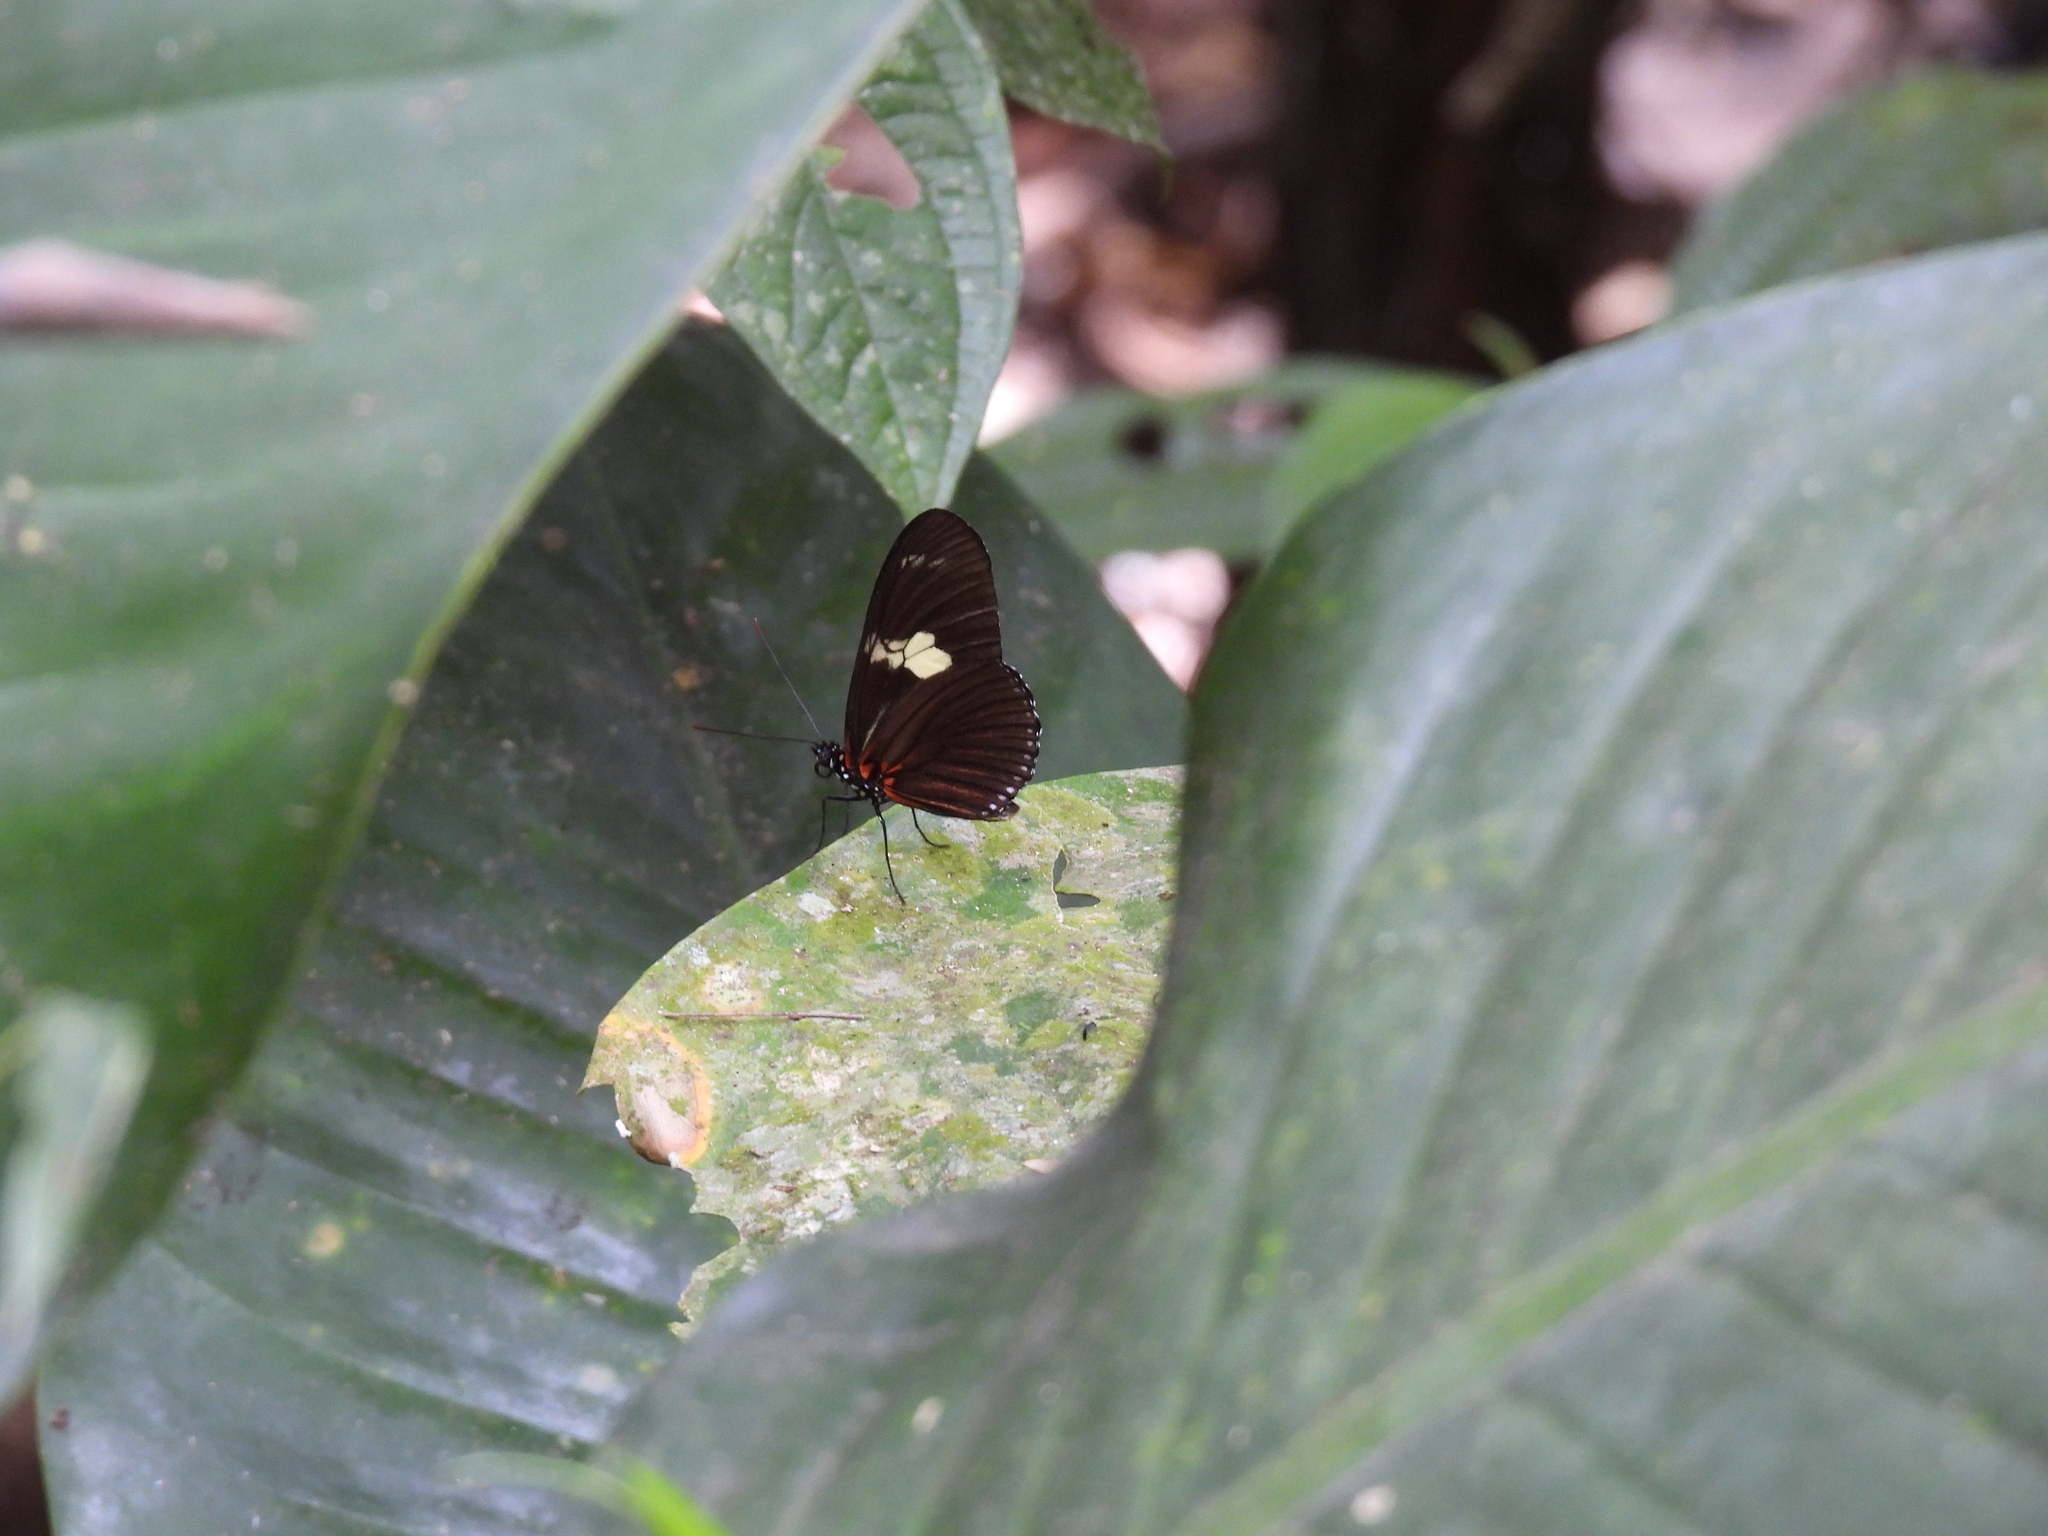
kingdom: Animalia
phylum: Arthropoda
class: Insecta
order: Lepidoptera
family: Nymphalidae
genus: Heliconius
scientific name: Heliconius doris
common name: Doris longwing
